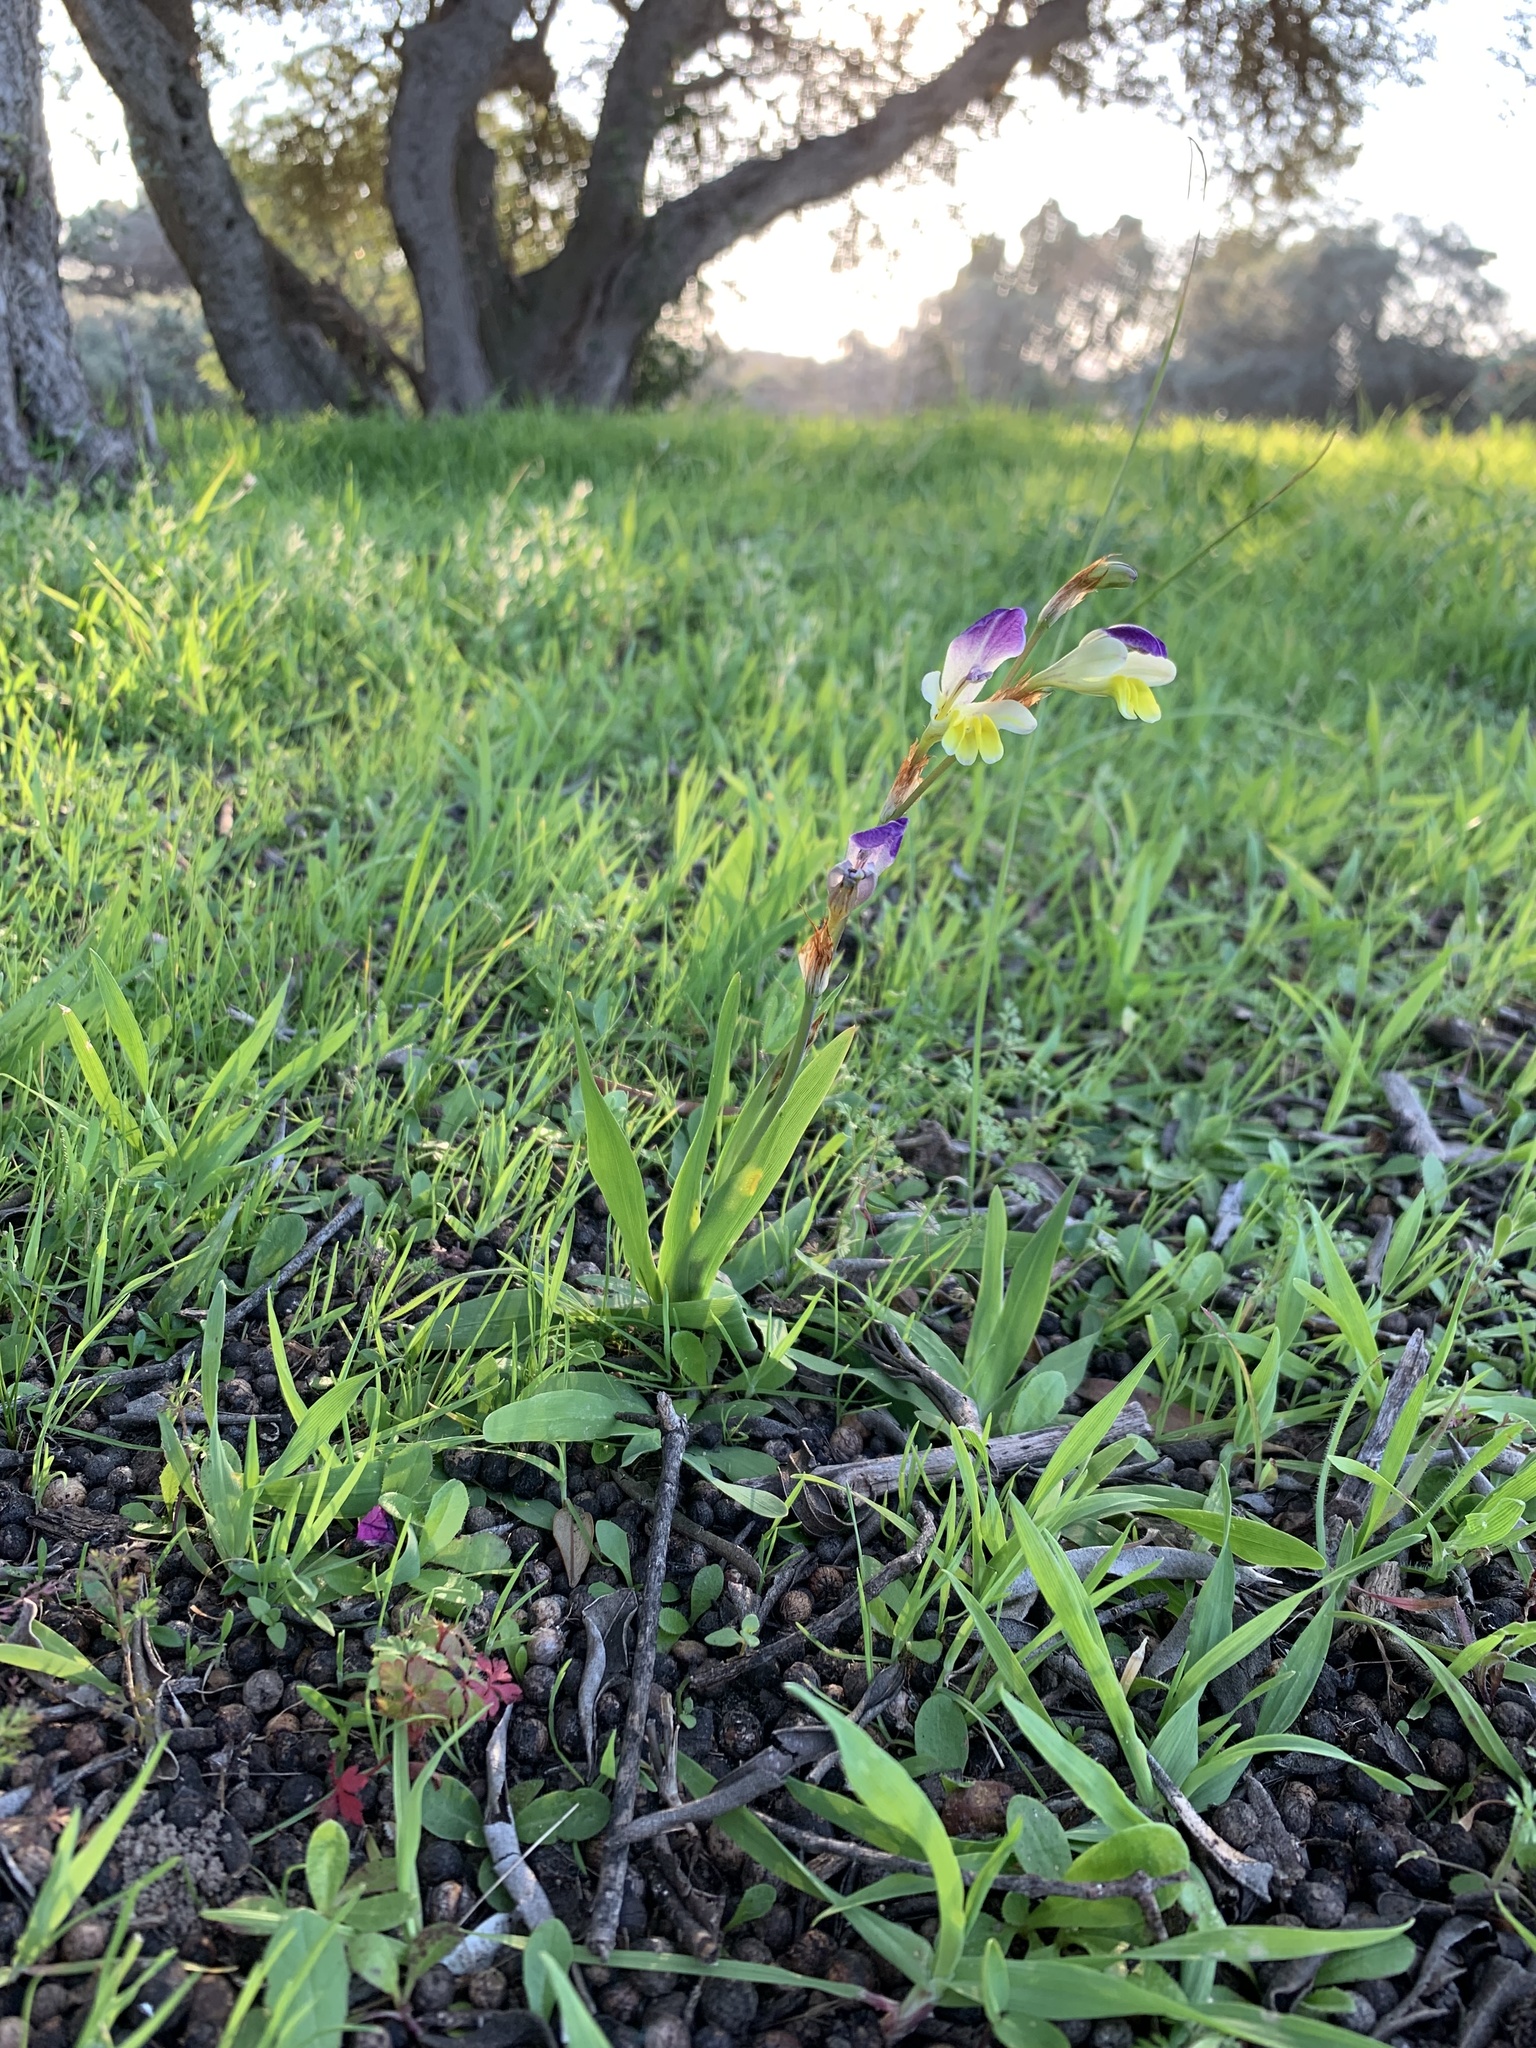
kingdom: Plantae
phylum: Tracheophyta
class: Liliopsida
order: Asparagales
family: Iridaceae
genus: Sparaxis
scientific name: Sparaxis villosa
